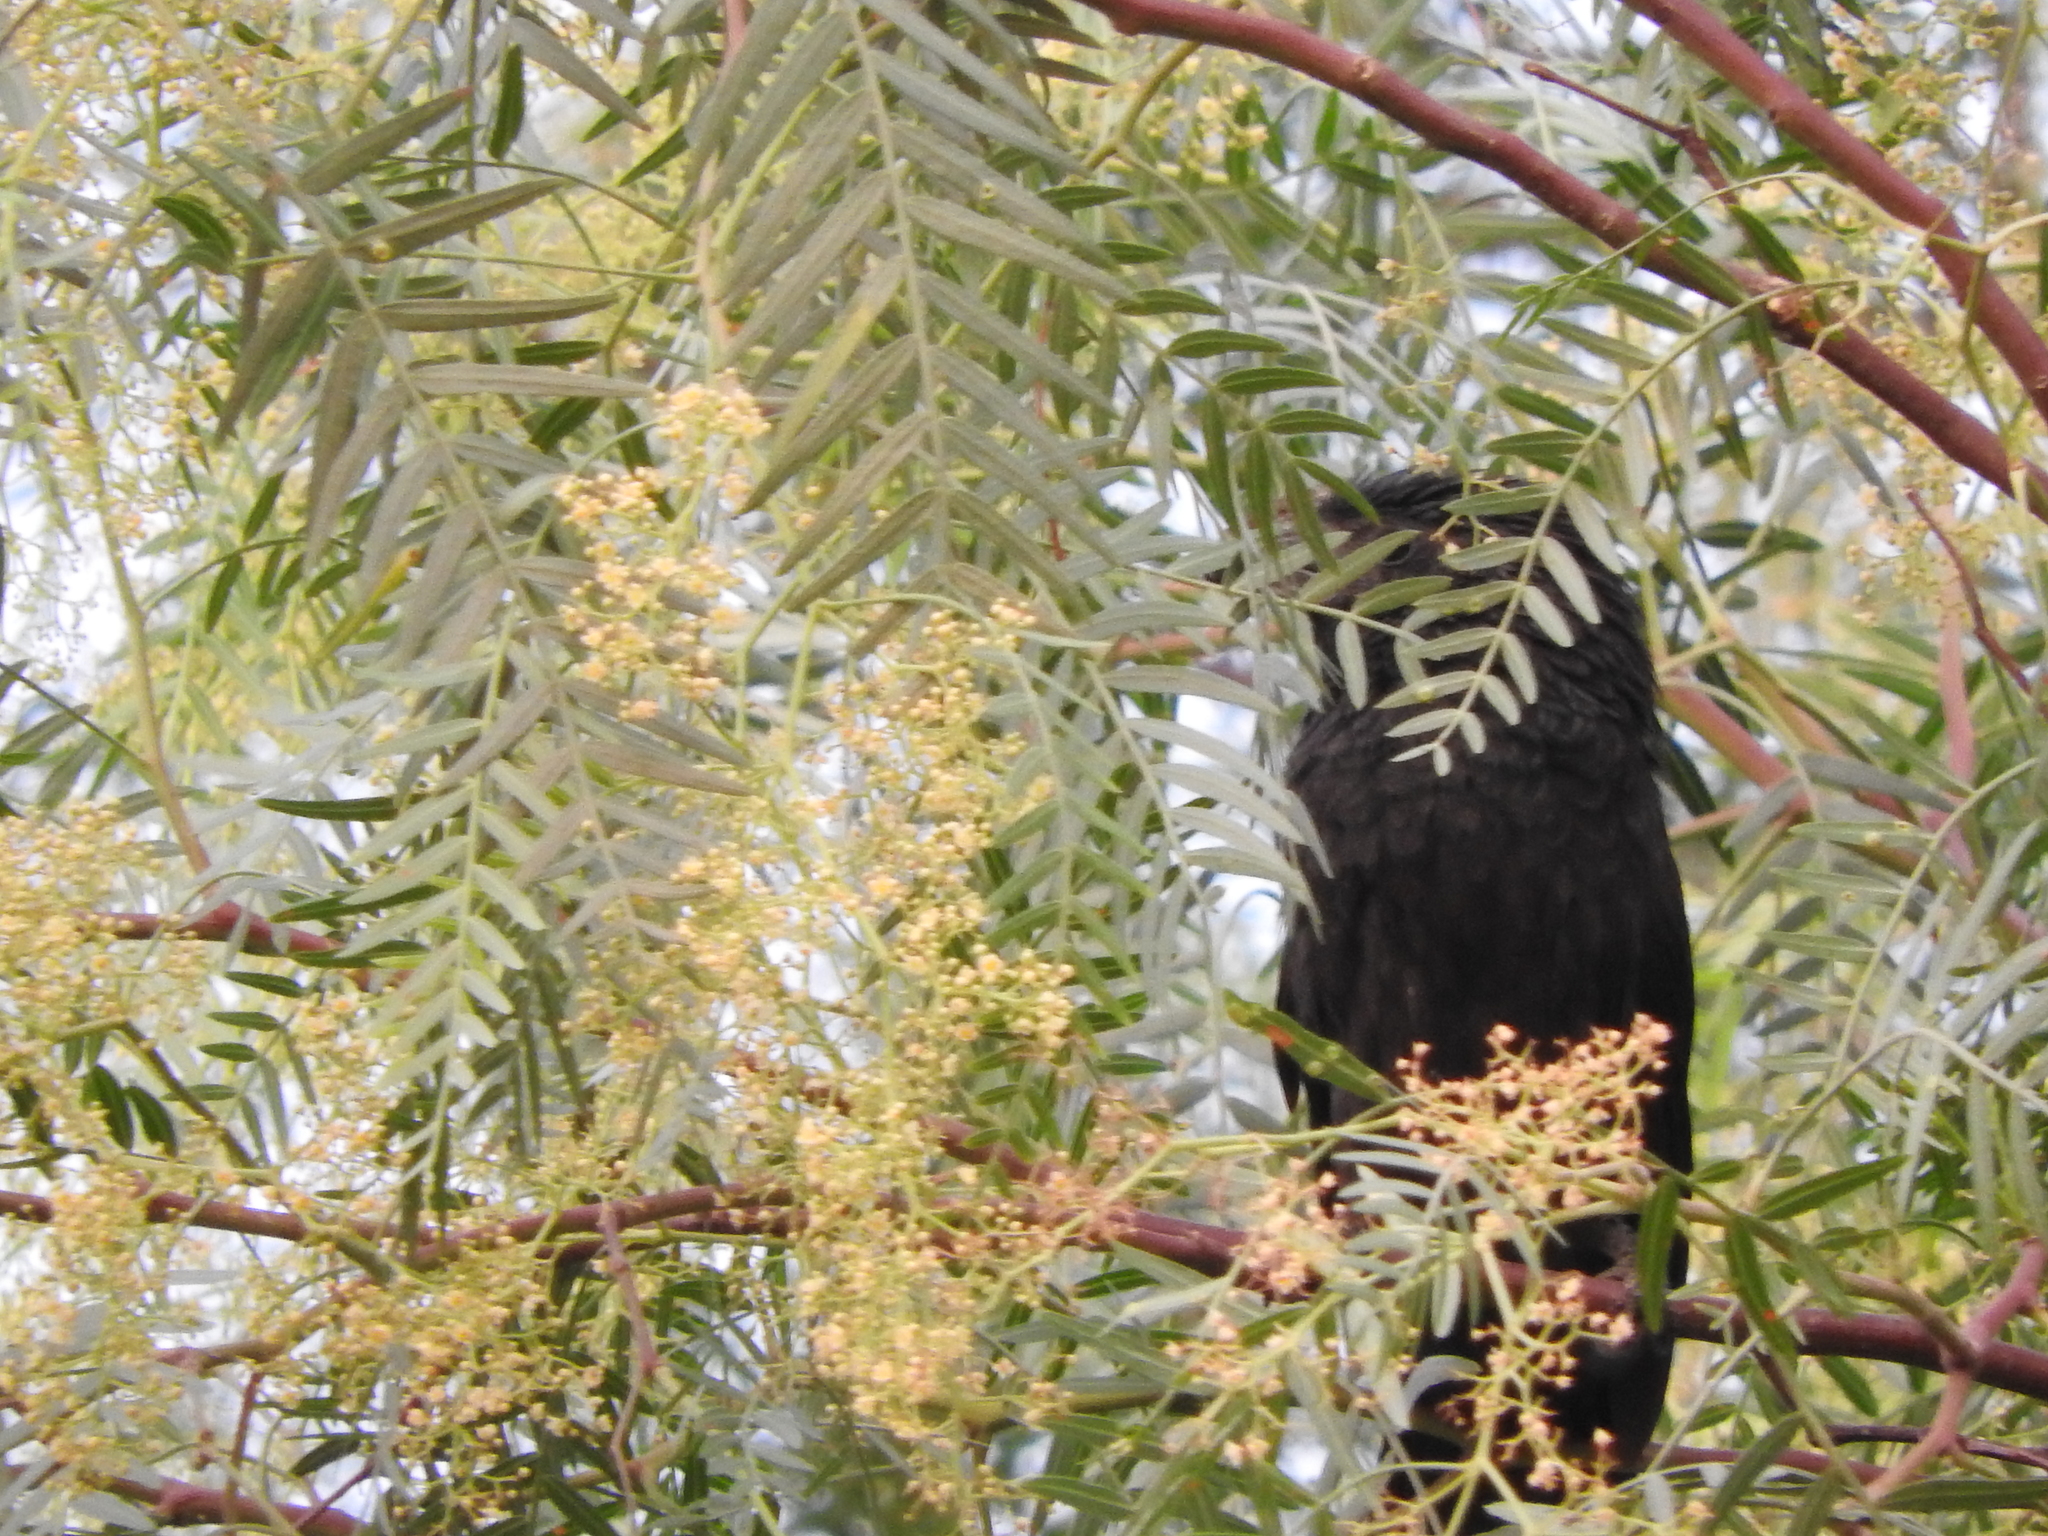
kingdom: Plantae
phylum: Tracheophyta
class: Magnoliopsida
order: Sapindales
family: Anacardiaceae
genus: Schinus
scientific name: Schinus molle
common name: Peruvian peppertree
